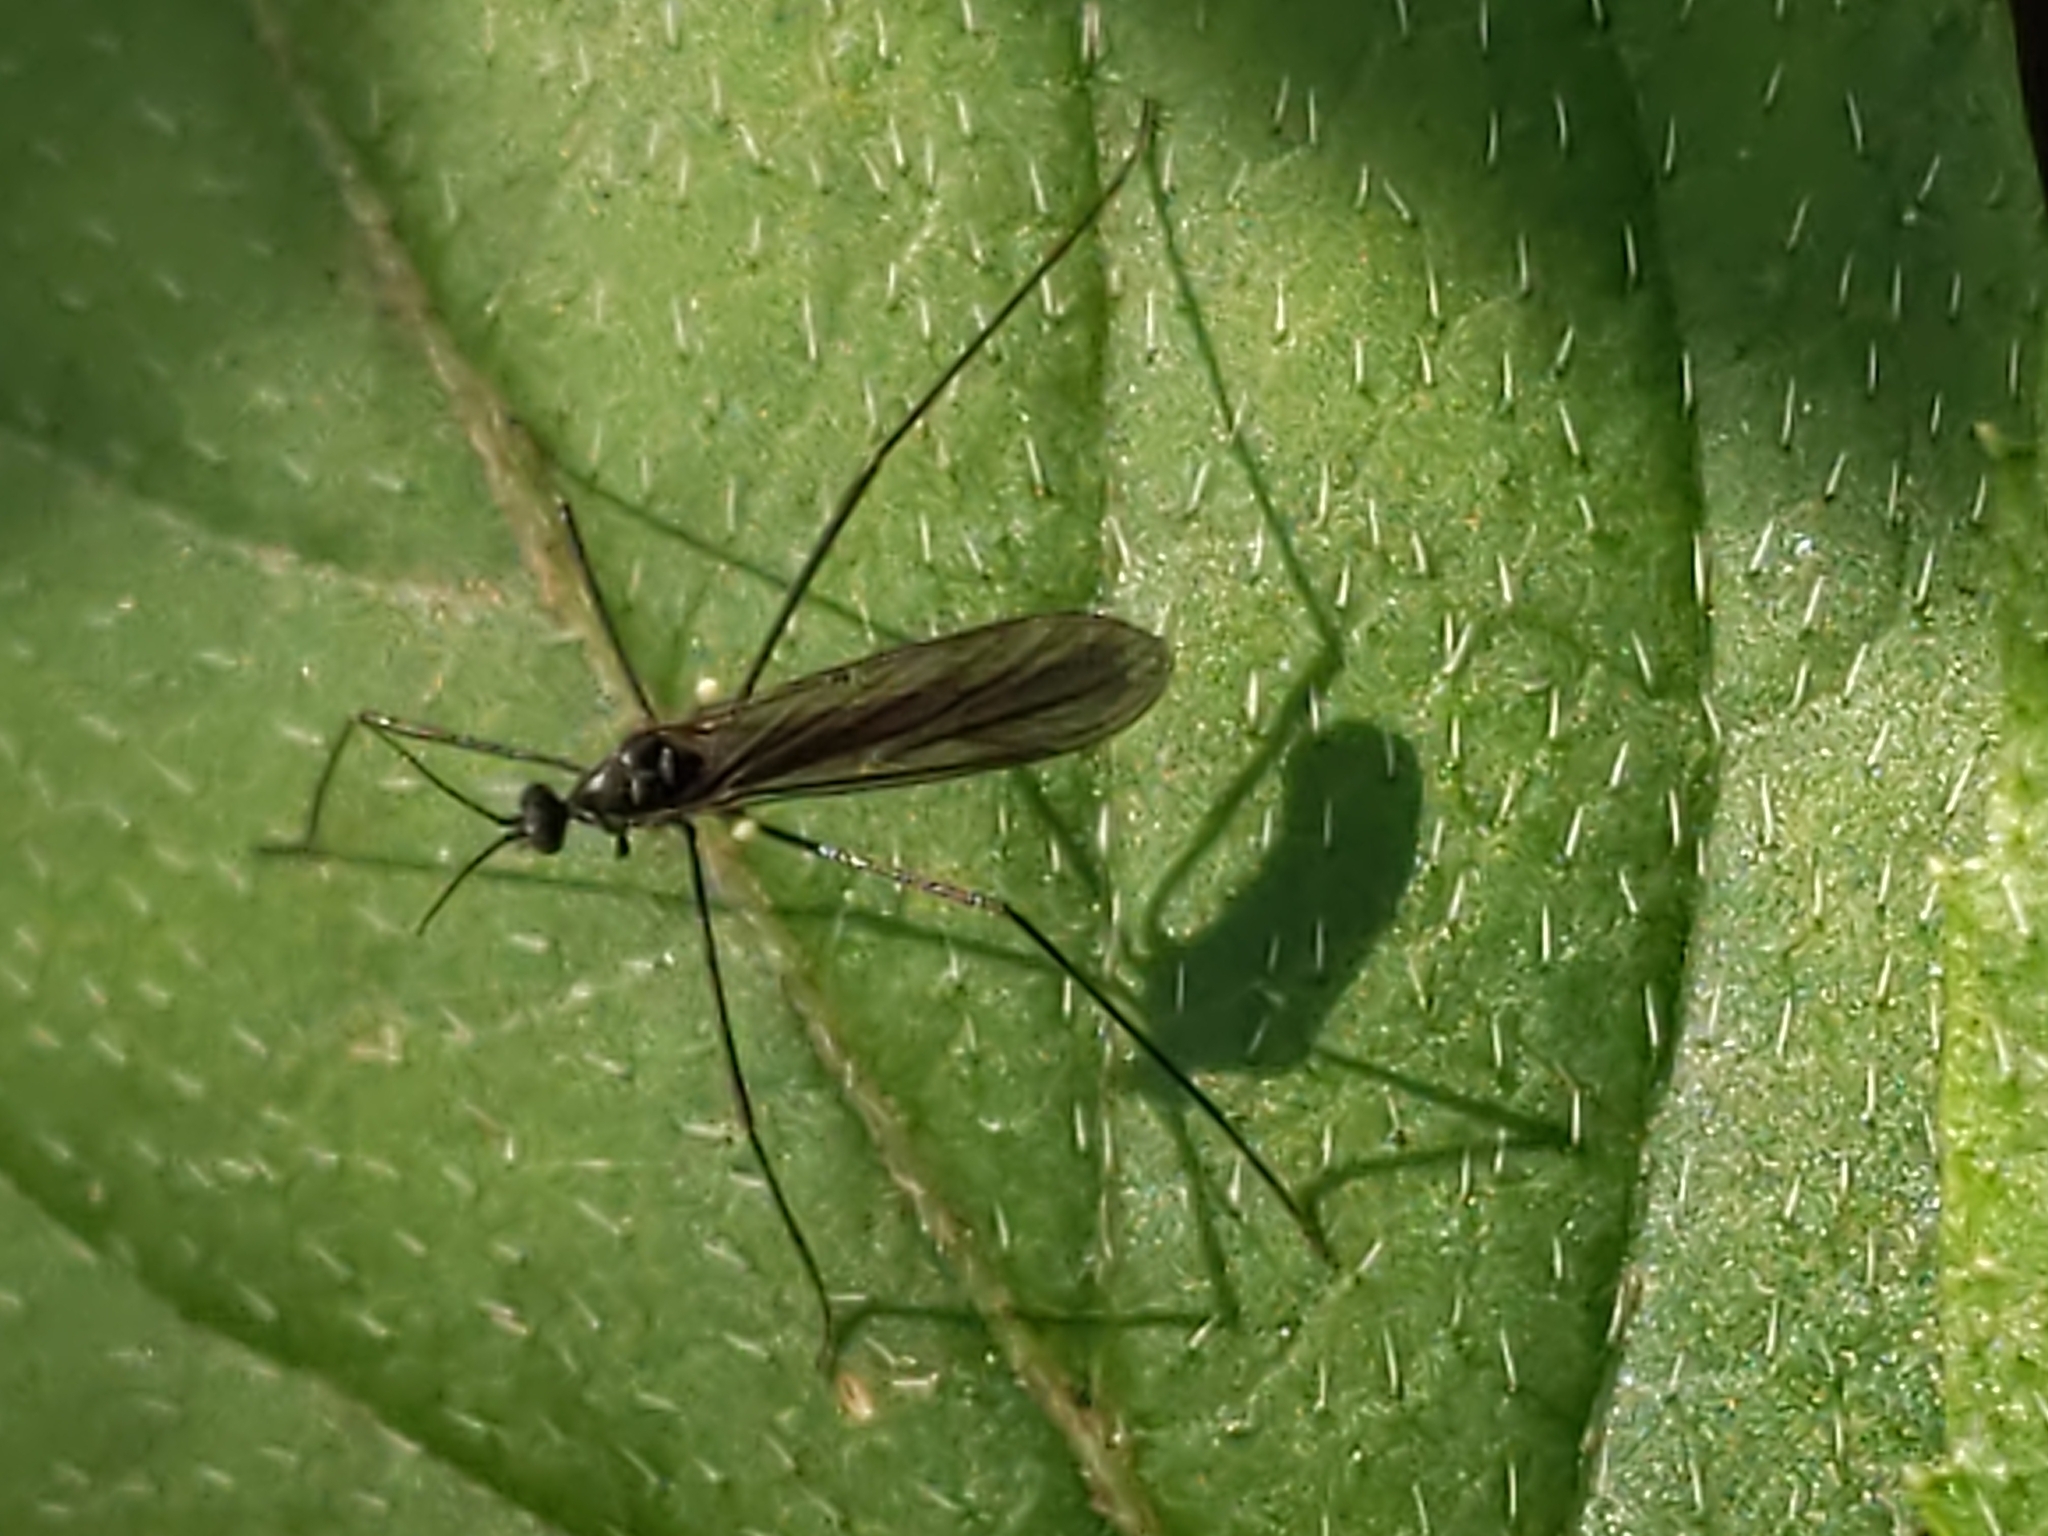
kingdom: Animalia
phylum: Arthropoda
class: Insecta
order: Diptera
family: Limoniidae
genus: Gnophomyia
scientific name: Gnophomyia tristissima
